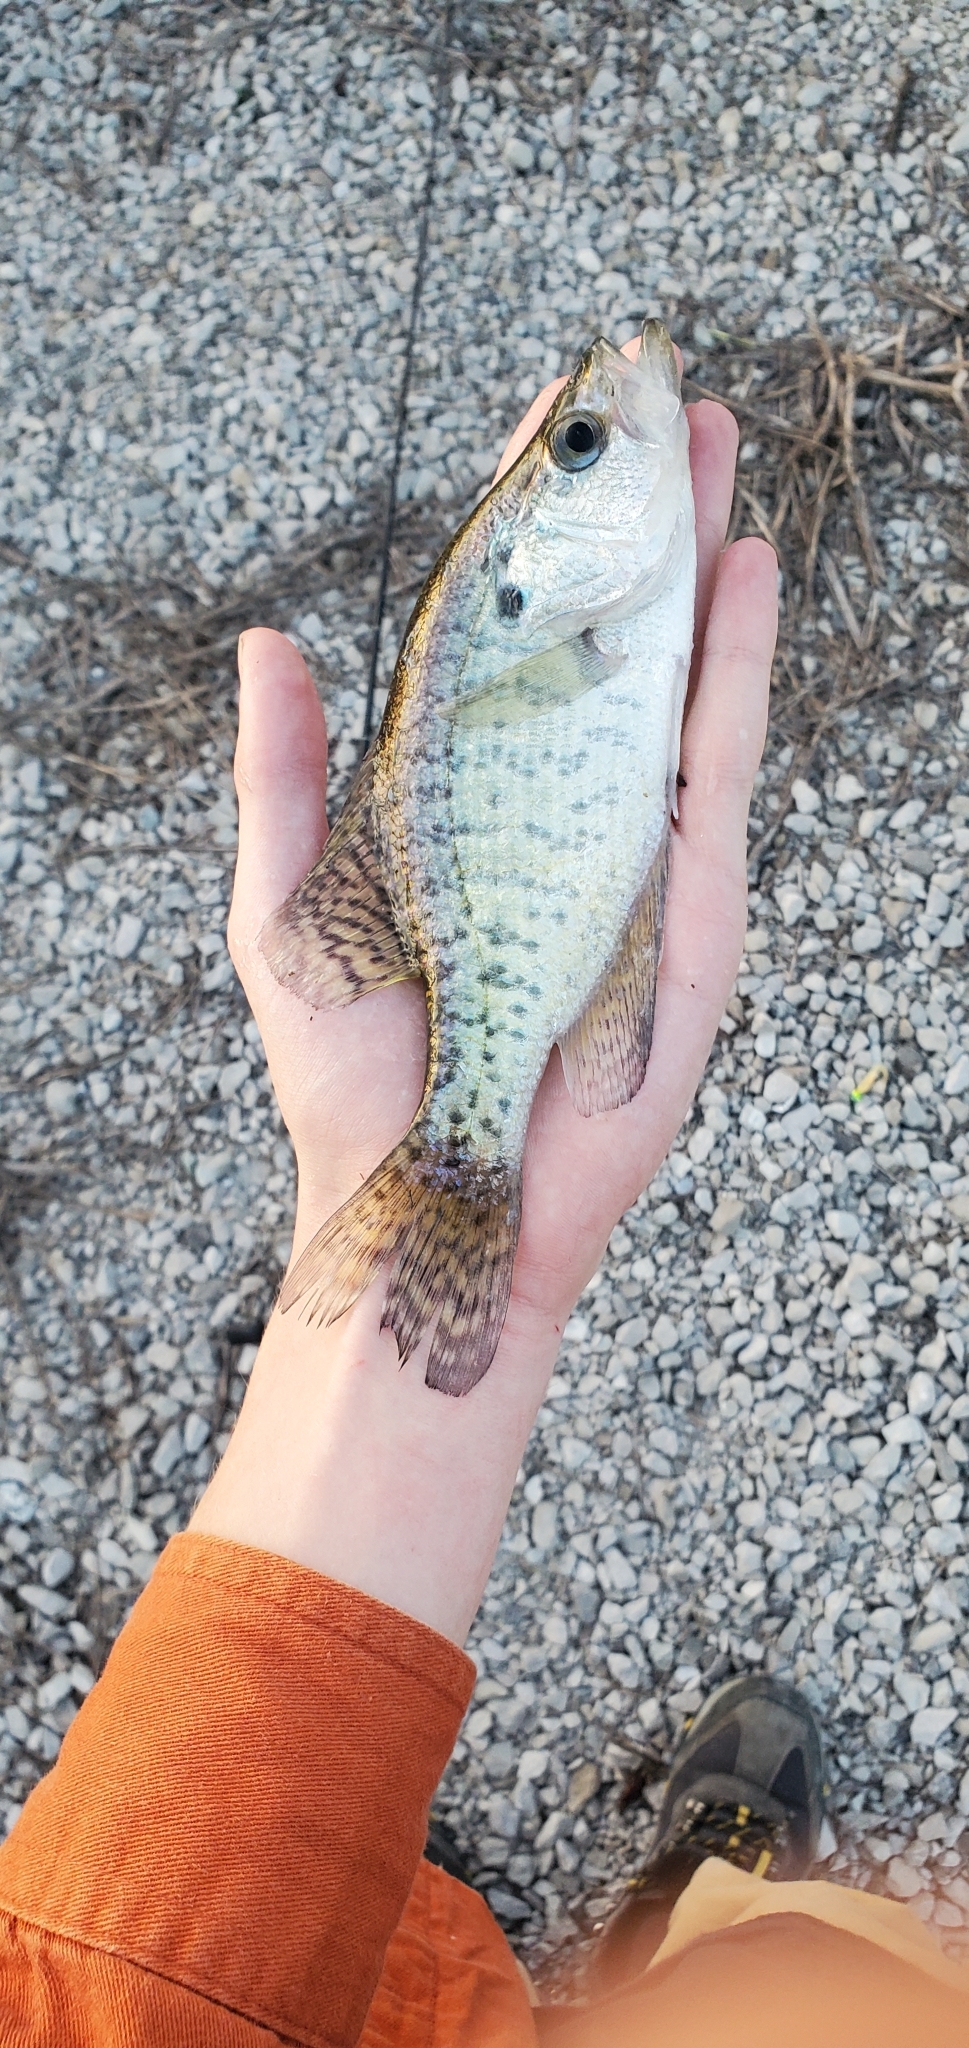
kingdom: Animalia
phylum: Chordata
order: Perciformes
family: Centrarchidae
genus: Pomoxis
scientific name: Pomoxis annularis
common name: White crappie
